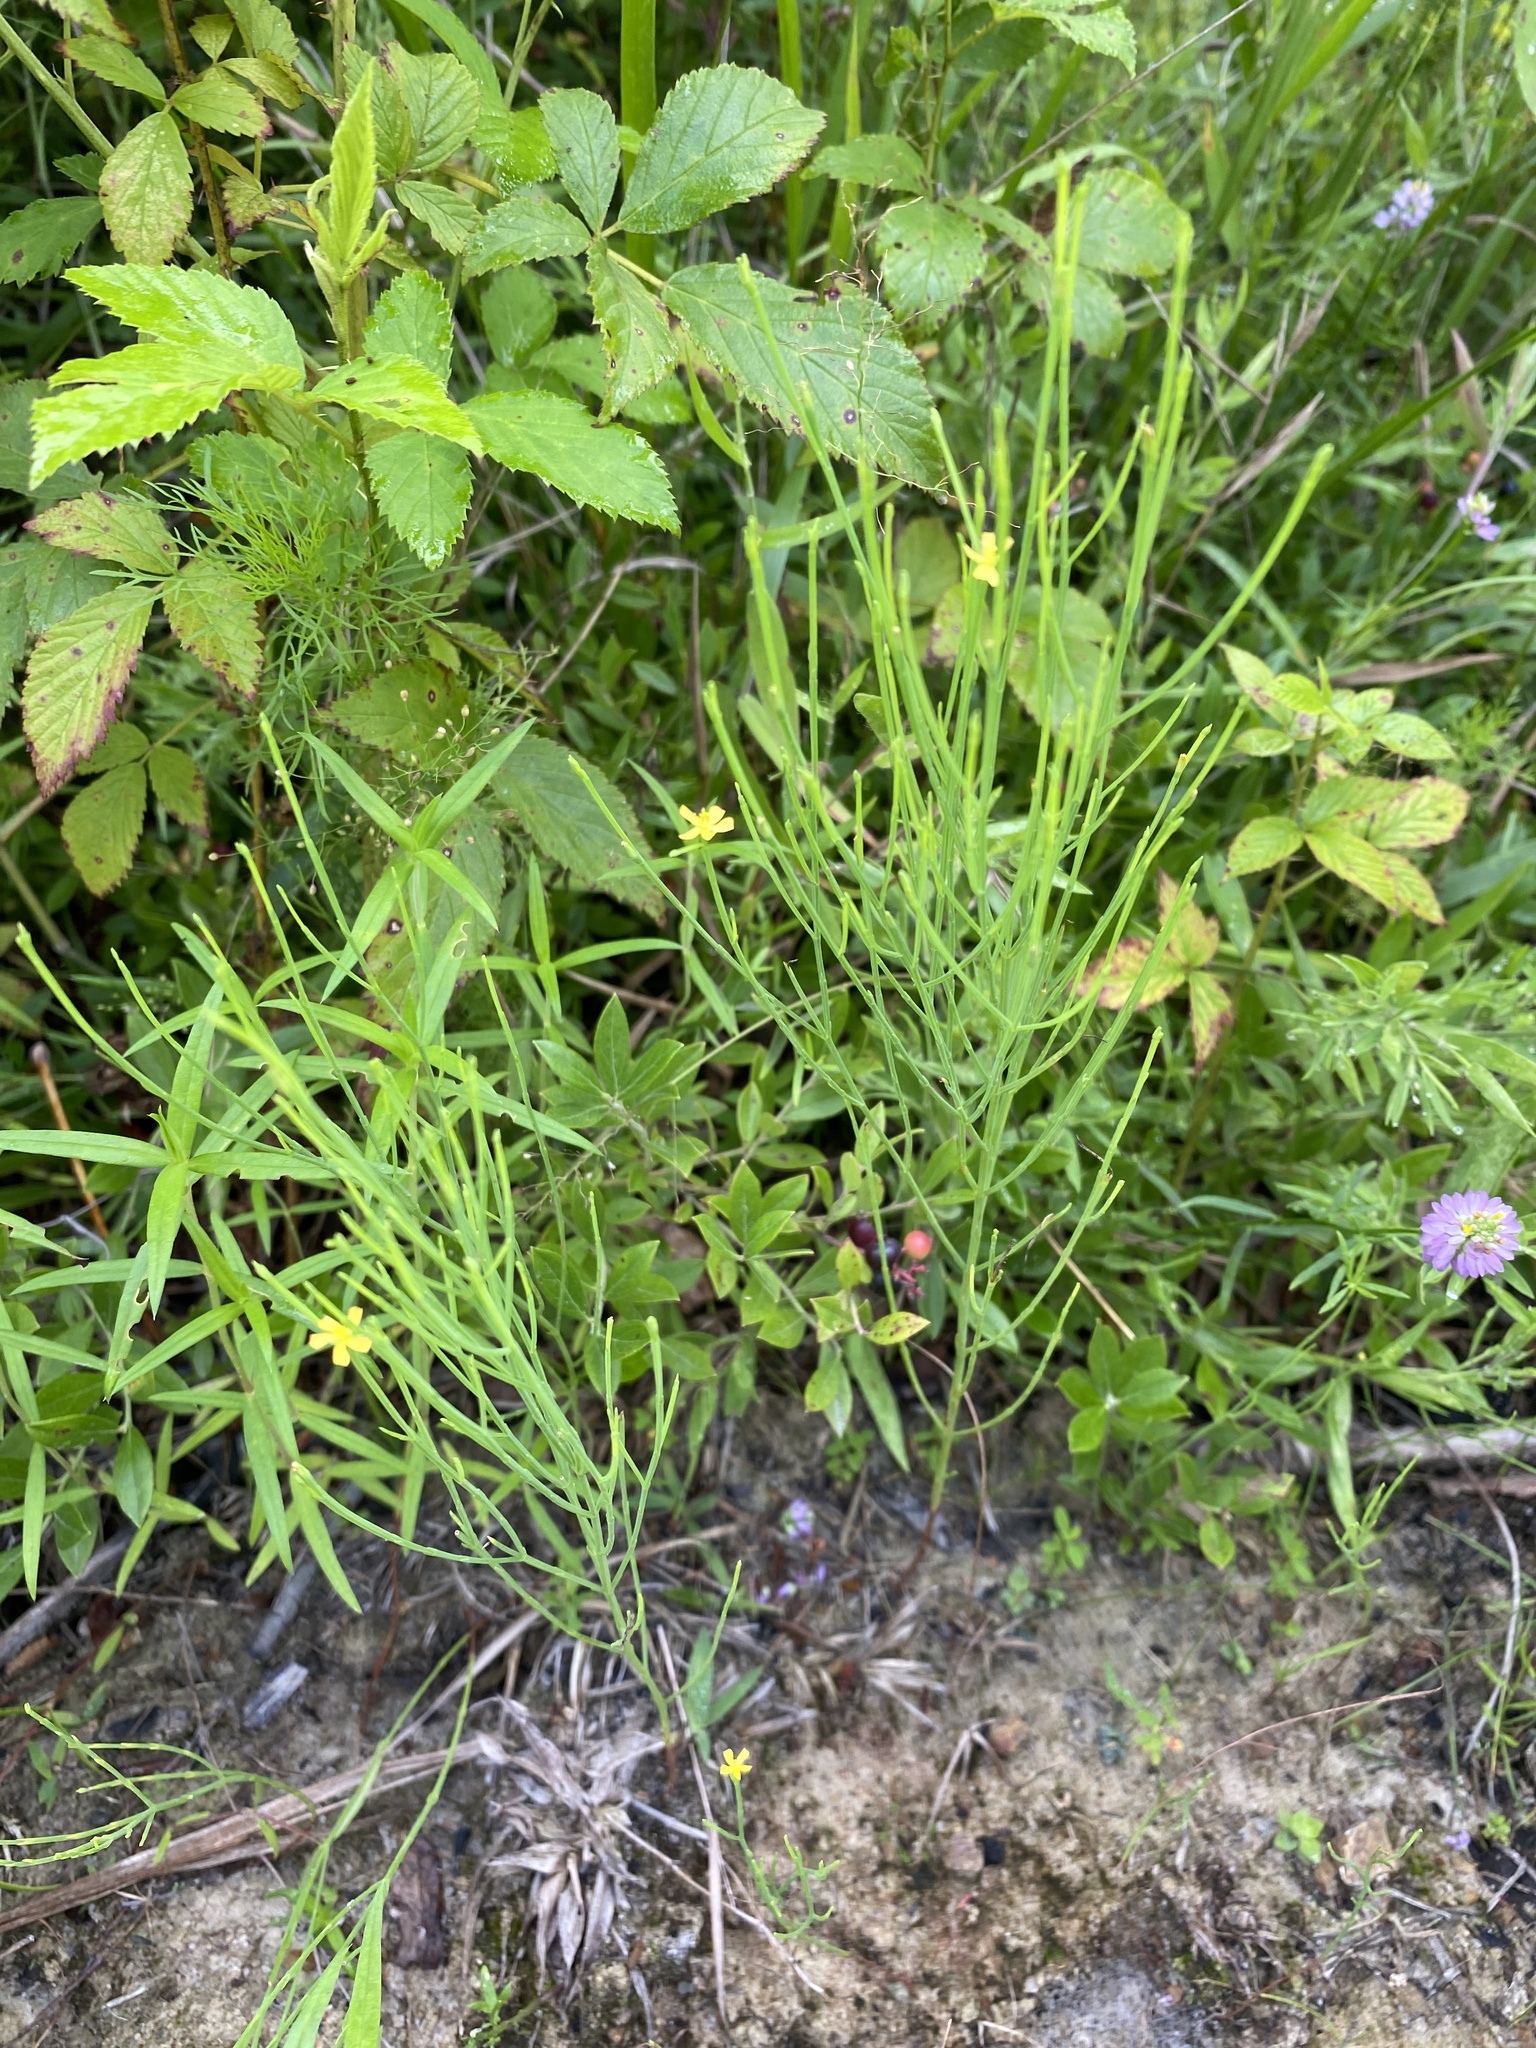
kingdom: Plantae
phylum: Tracheophyta
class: Magnoliopsida
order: Malpighiales
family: Hypericaceae
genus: Hypericum
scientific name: Hypericum gentianoides
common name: Gentian-leaved st. john's-wort
